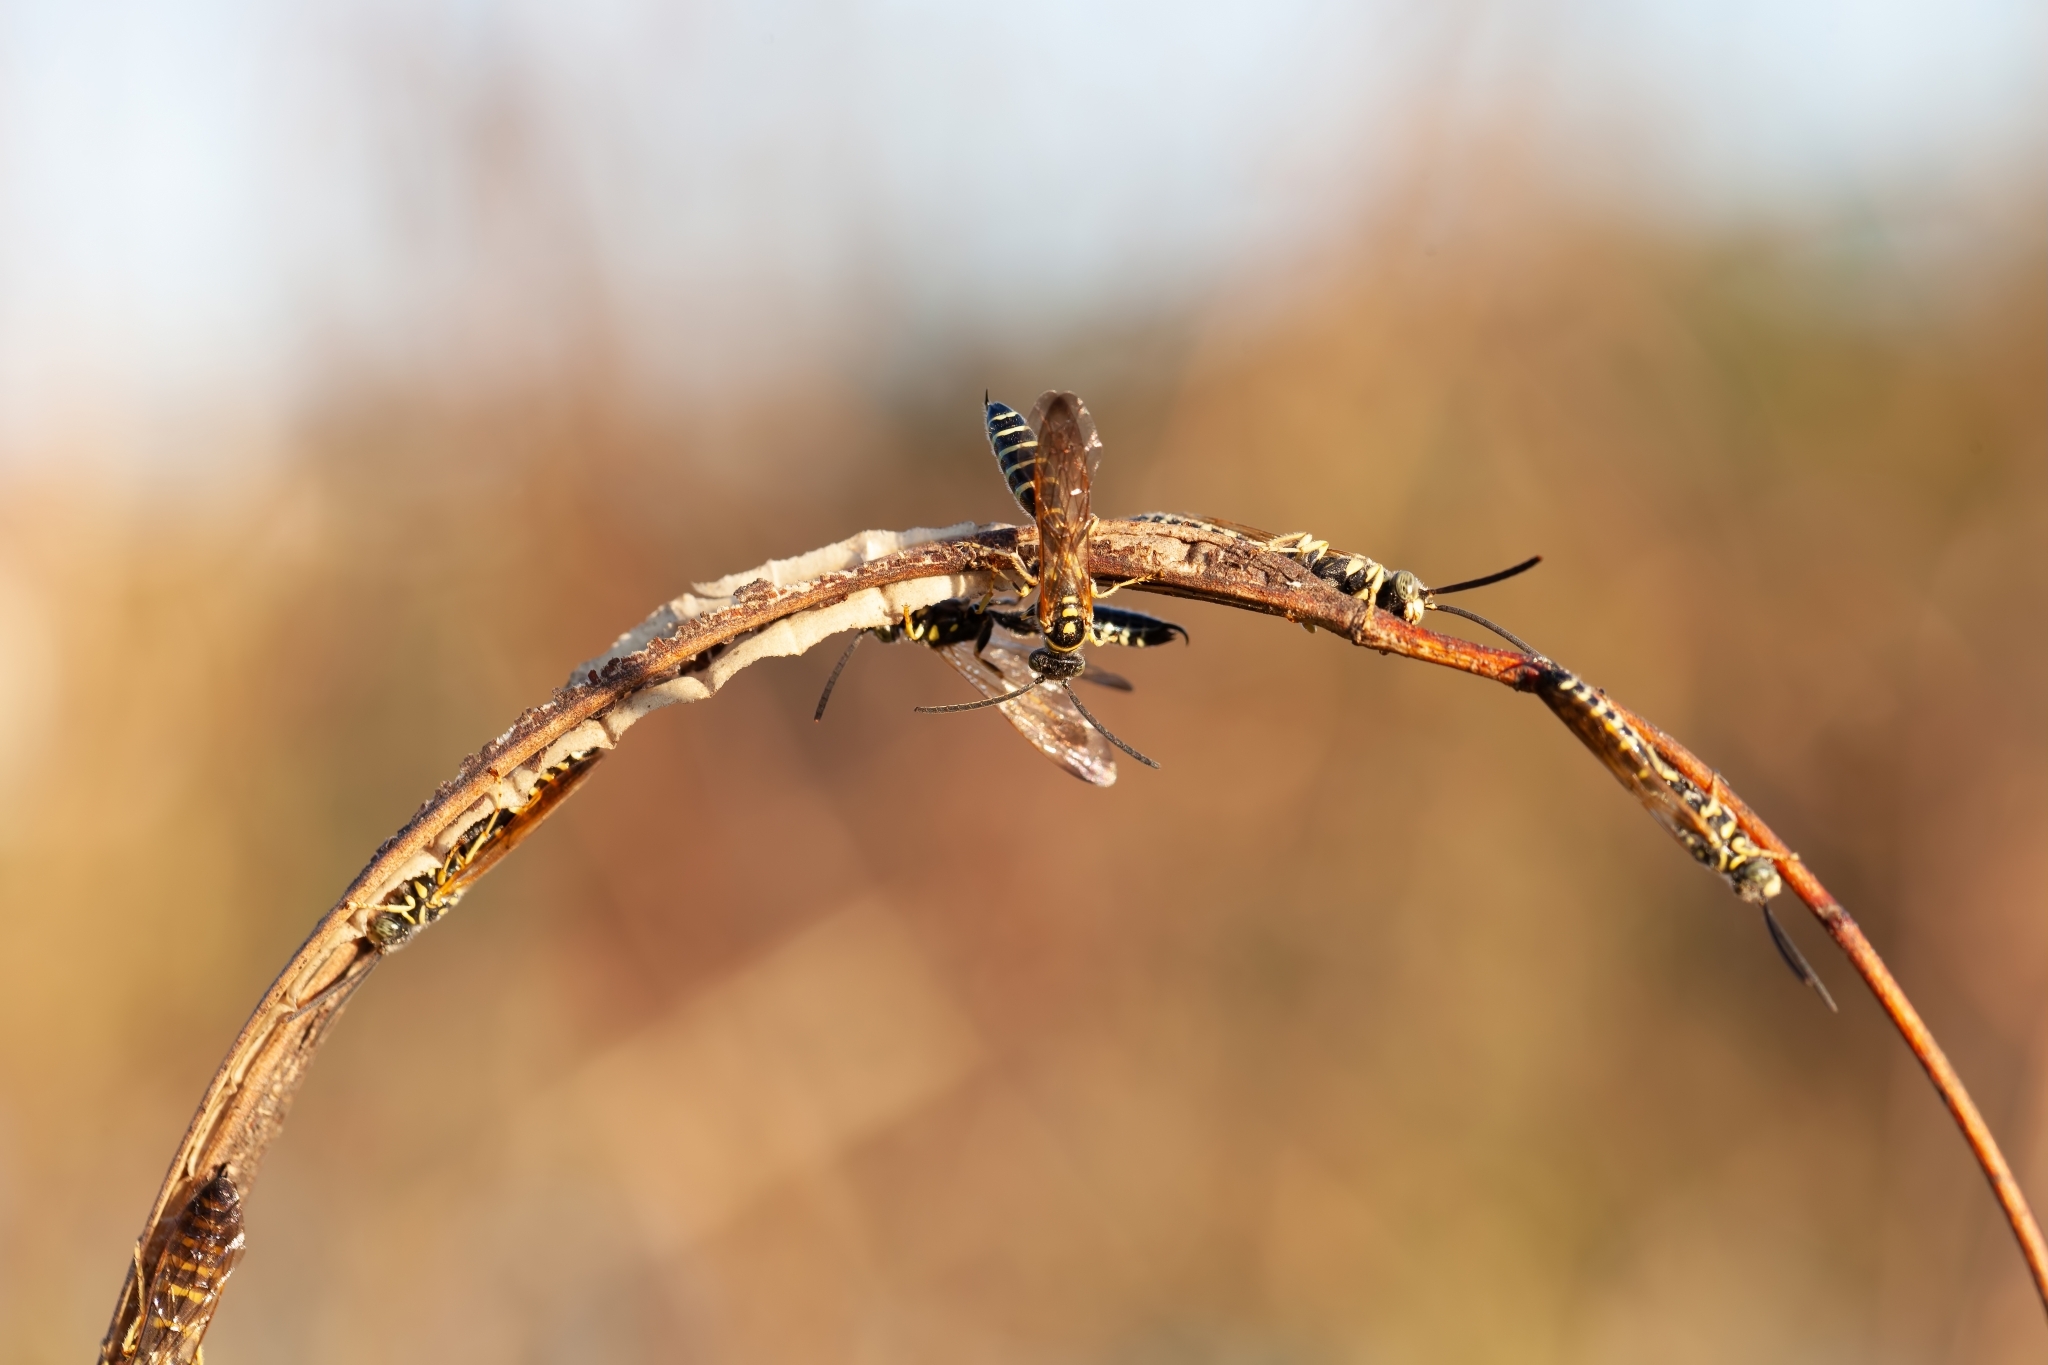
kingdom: Animalia
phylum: Arthropoda
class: Insecta
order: Hymenoptera
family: Tiphiidae
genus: Myzinum
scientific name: Myzinum
